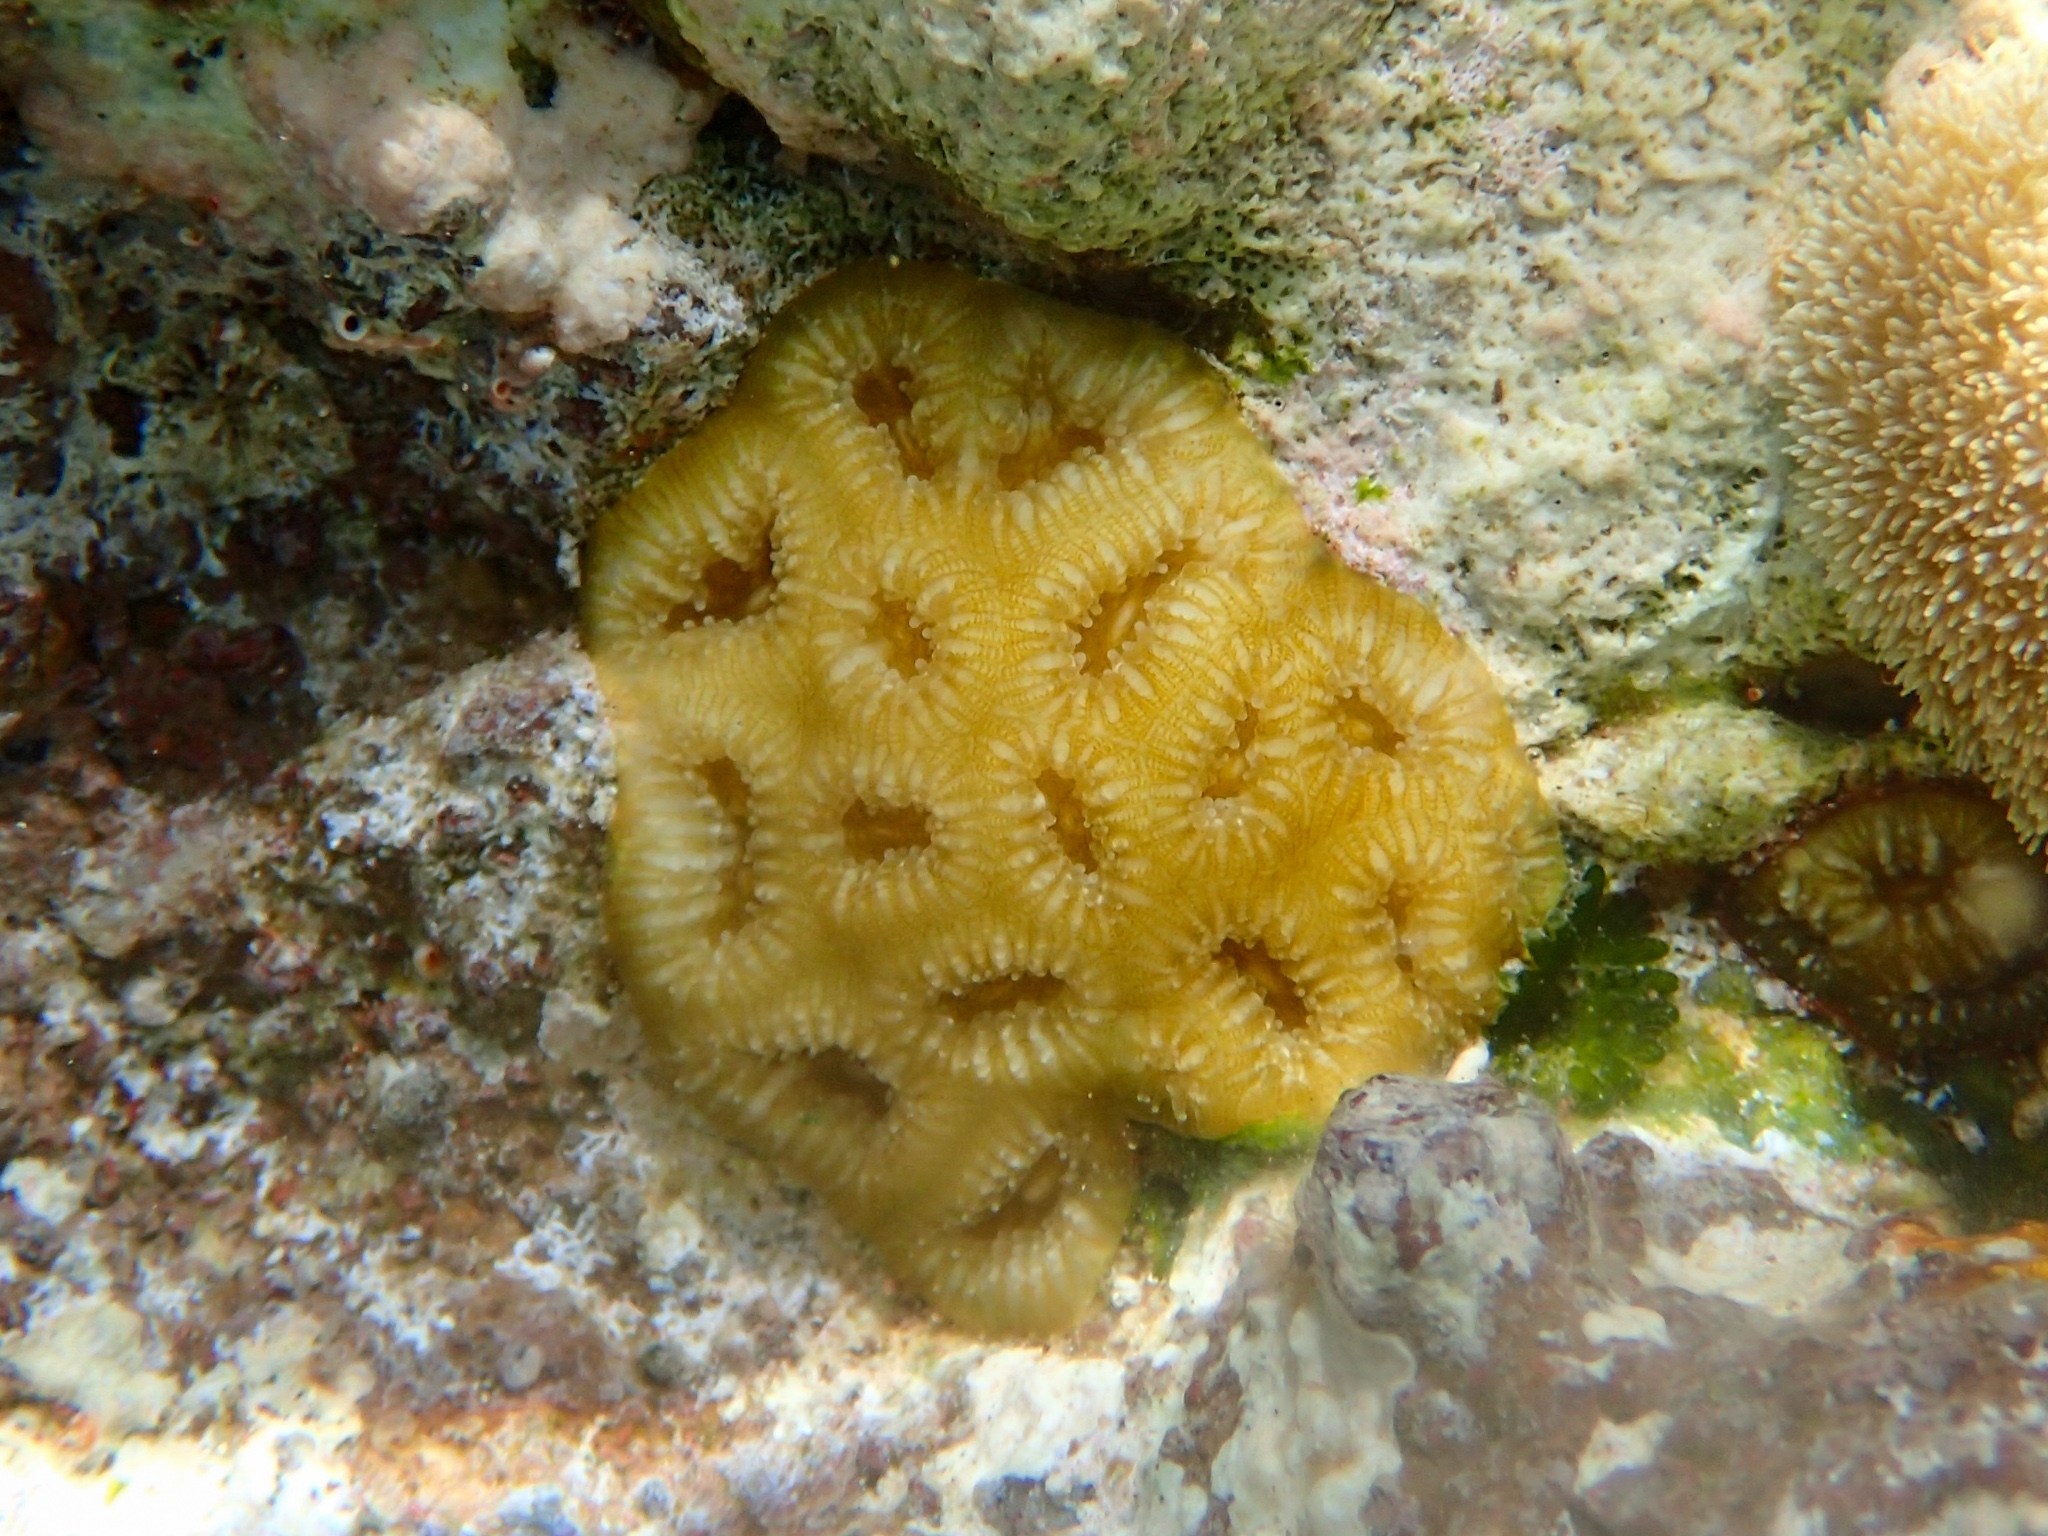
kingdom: Animalia
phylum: Cnidaria
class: Anthozoa
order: Scleractinia
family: Faviidae
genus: Favia
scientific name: Favia fragum
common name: Golfball coral
